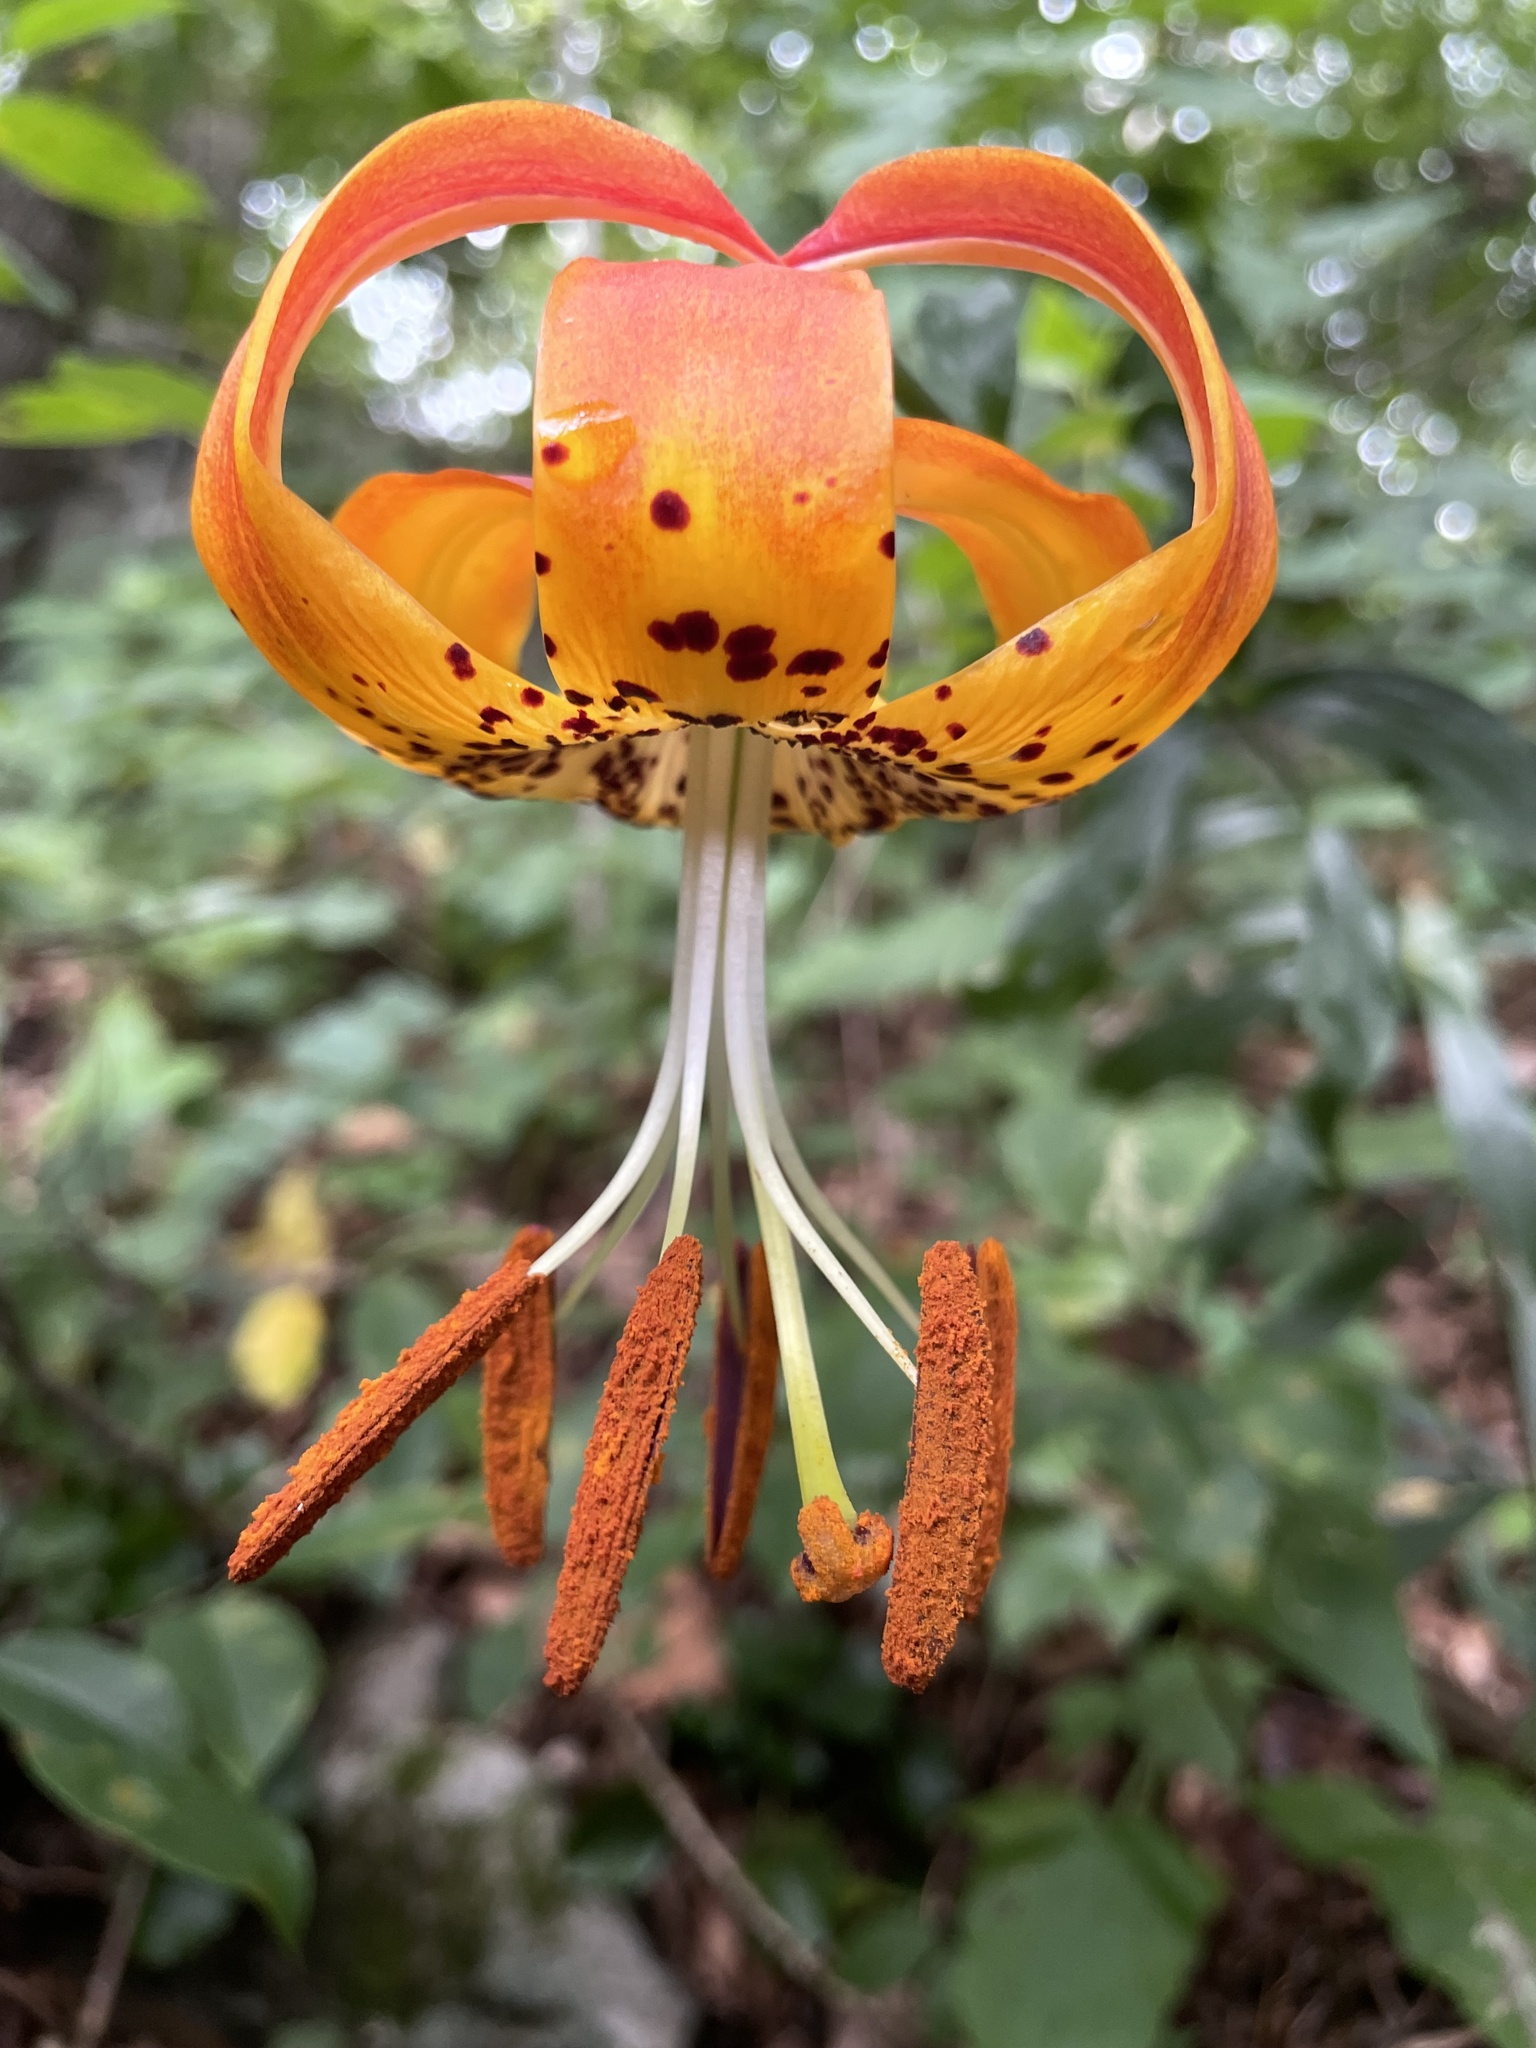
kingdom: Plantae
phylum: Tracheophyta
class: Liliopsida
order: Liliales
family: Liliaceae
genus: Lilium
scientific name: Lilium michauxii
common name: Carolina lily
